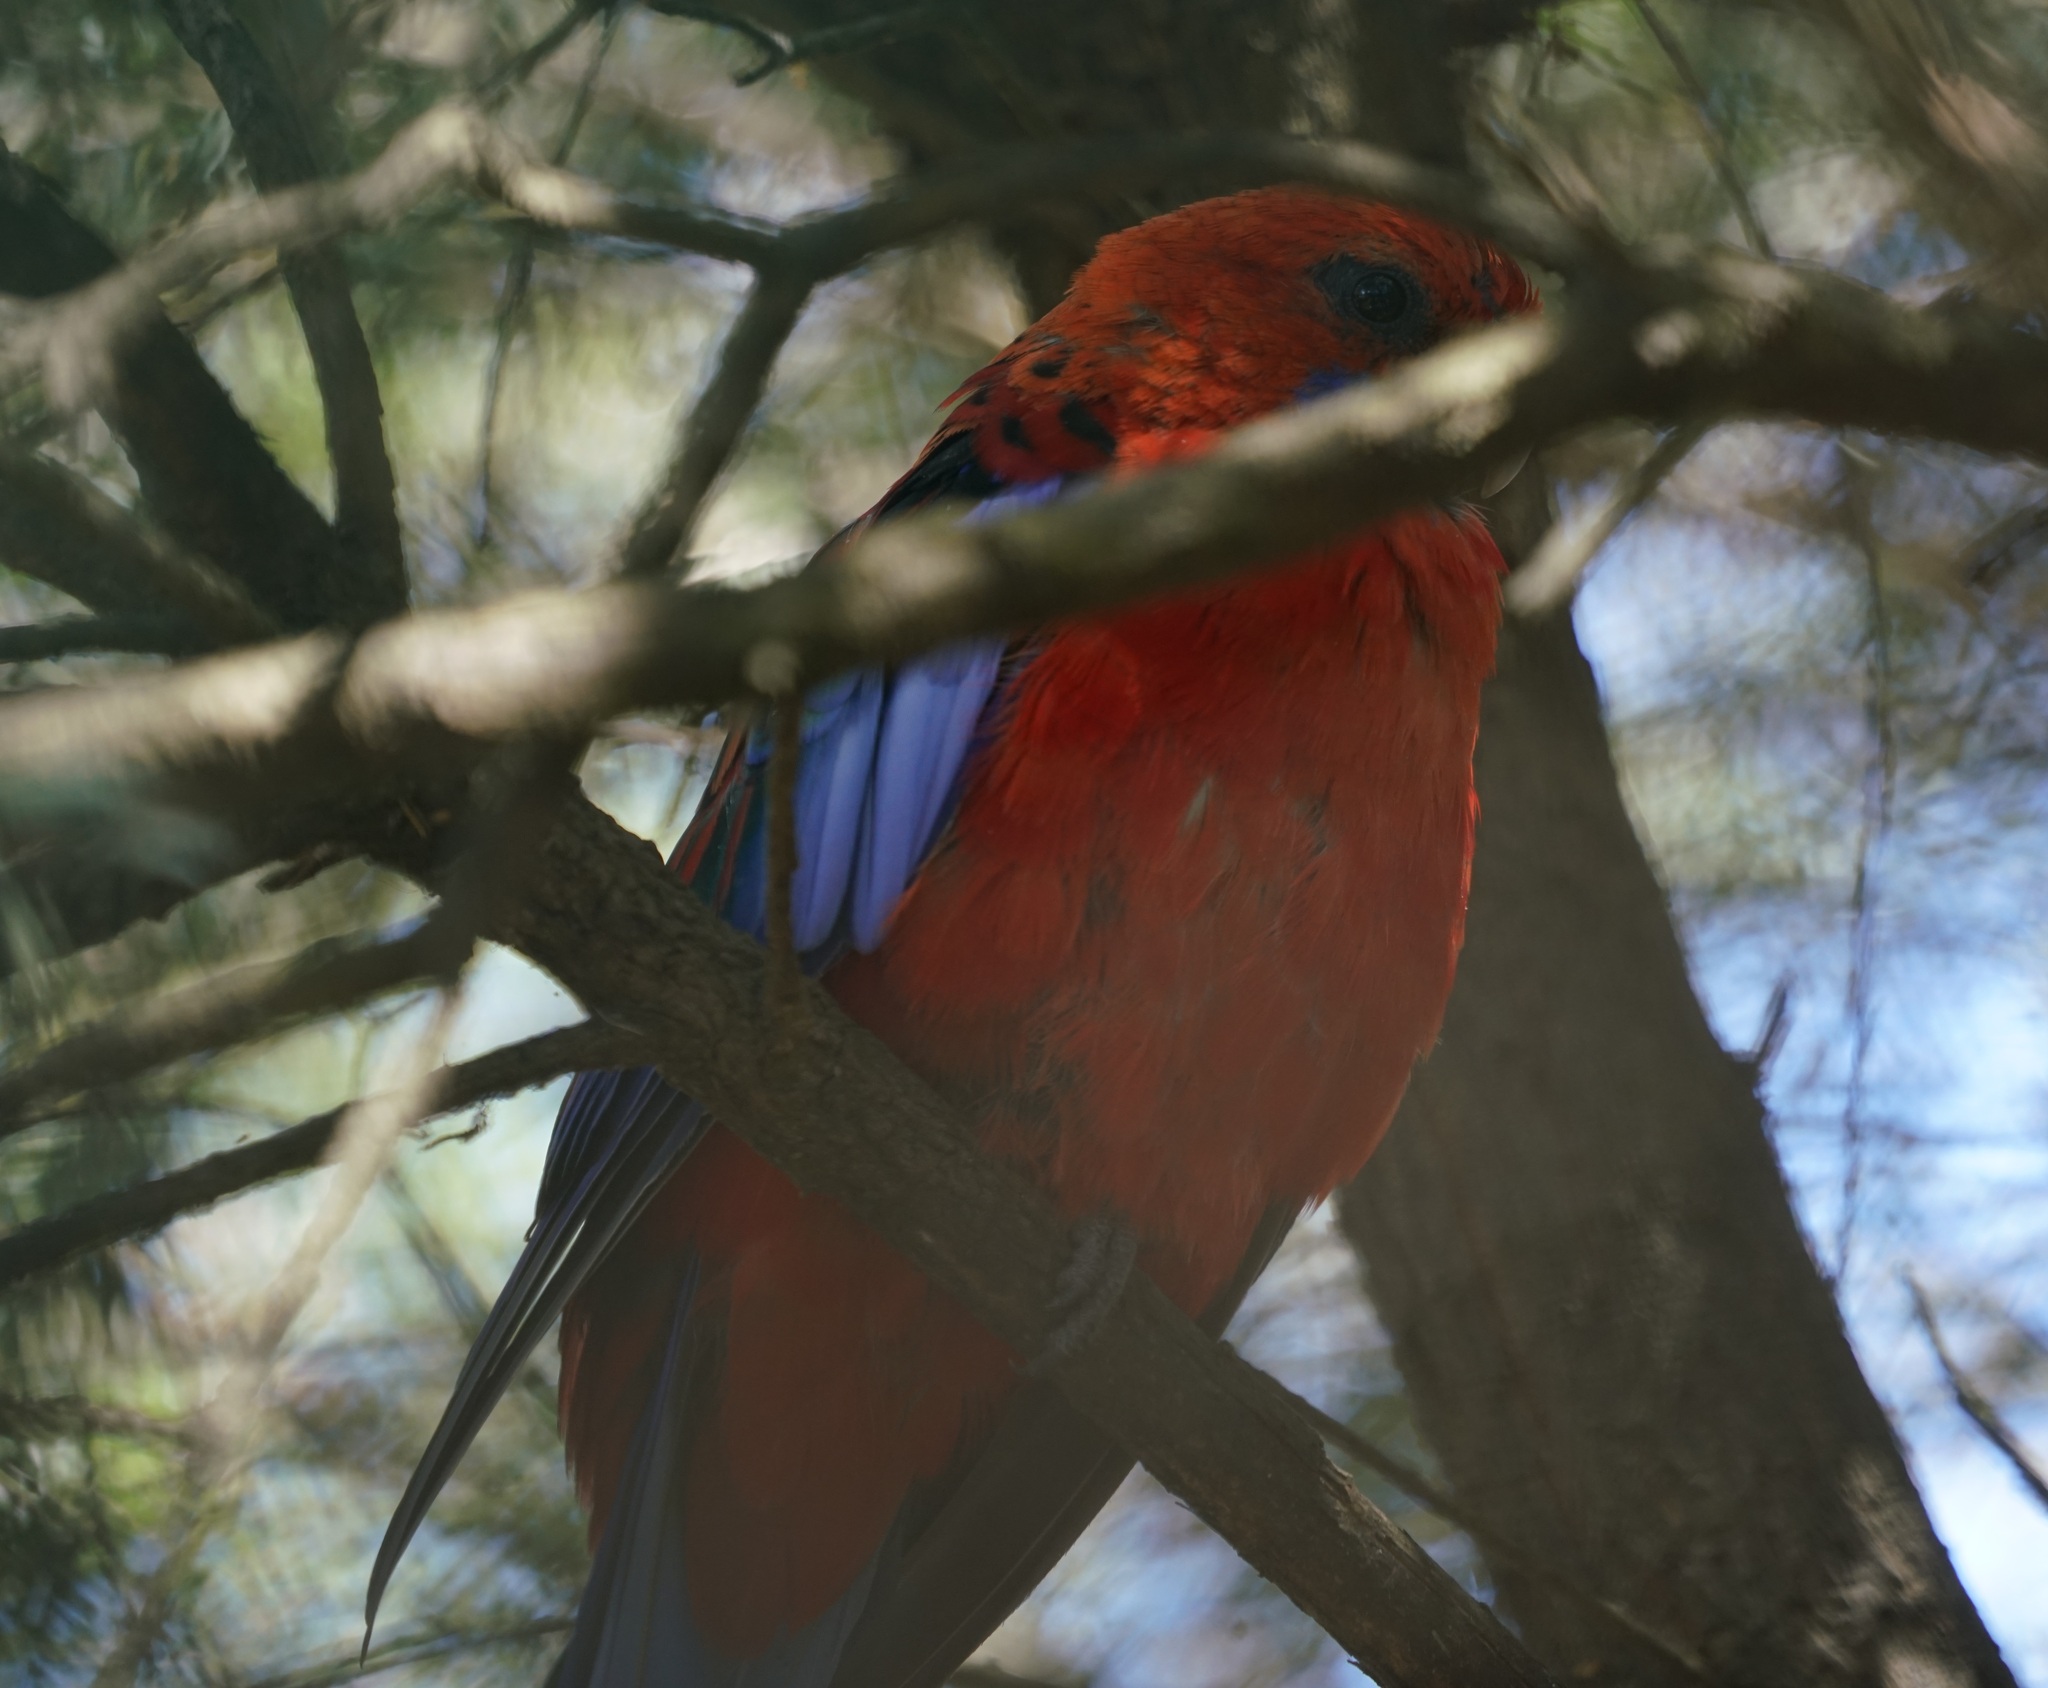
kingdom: Animalia
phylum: Chordata
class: Aves
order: Psittaciformes
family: Psittacidae
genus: Platycercus
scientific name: Platycercus elegans
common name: Crimson rosella
